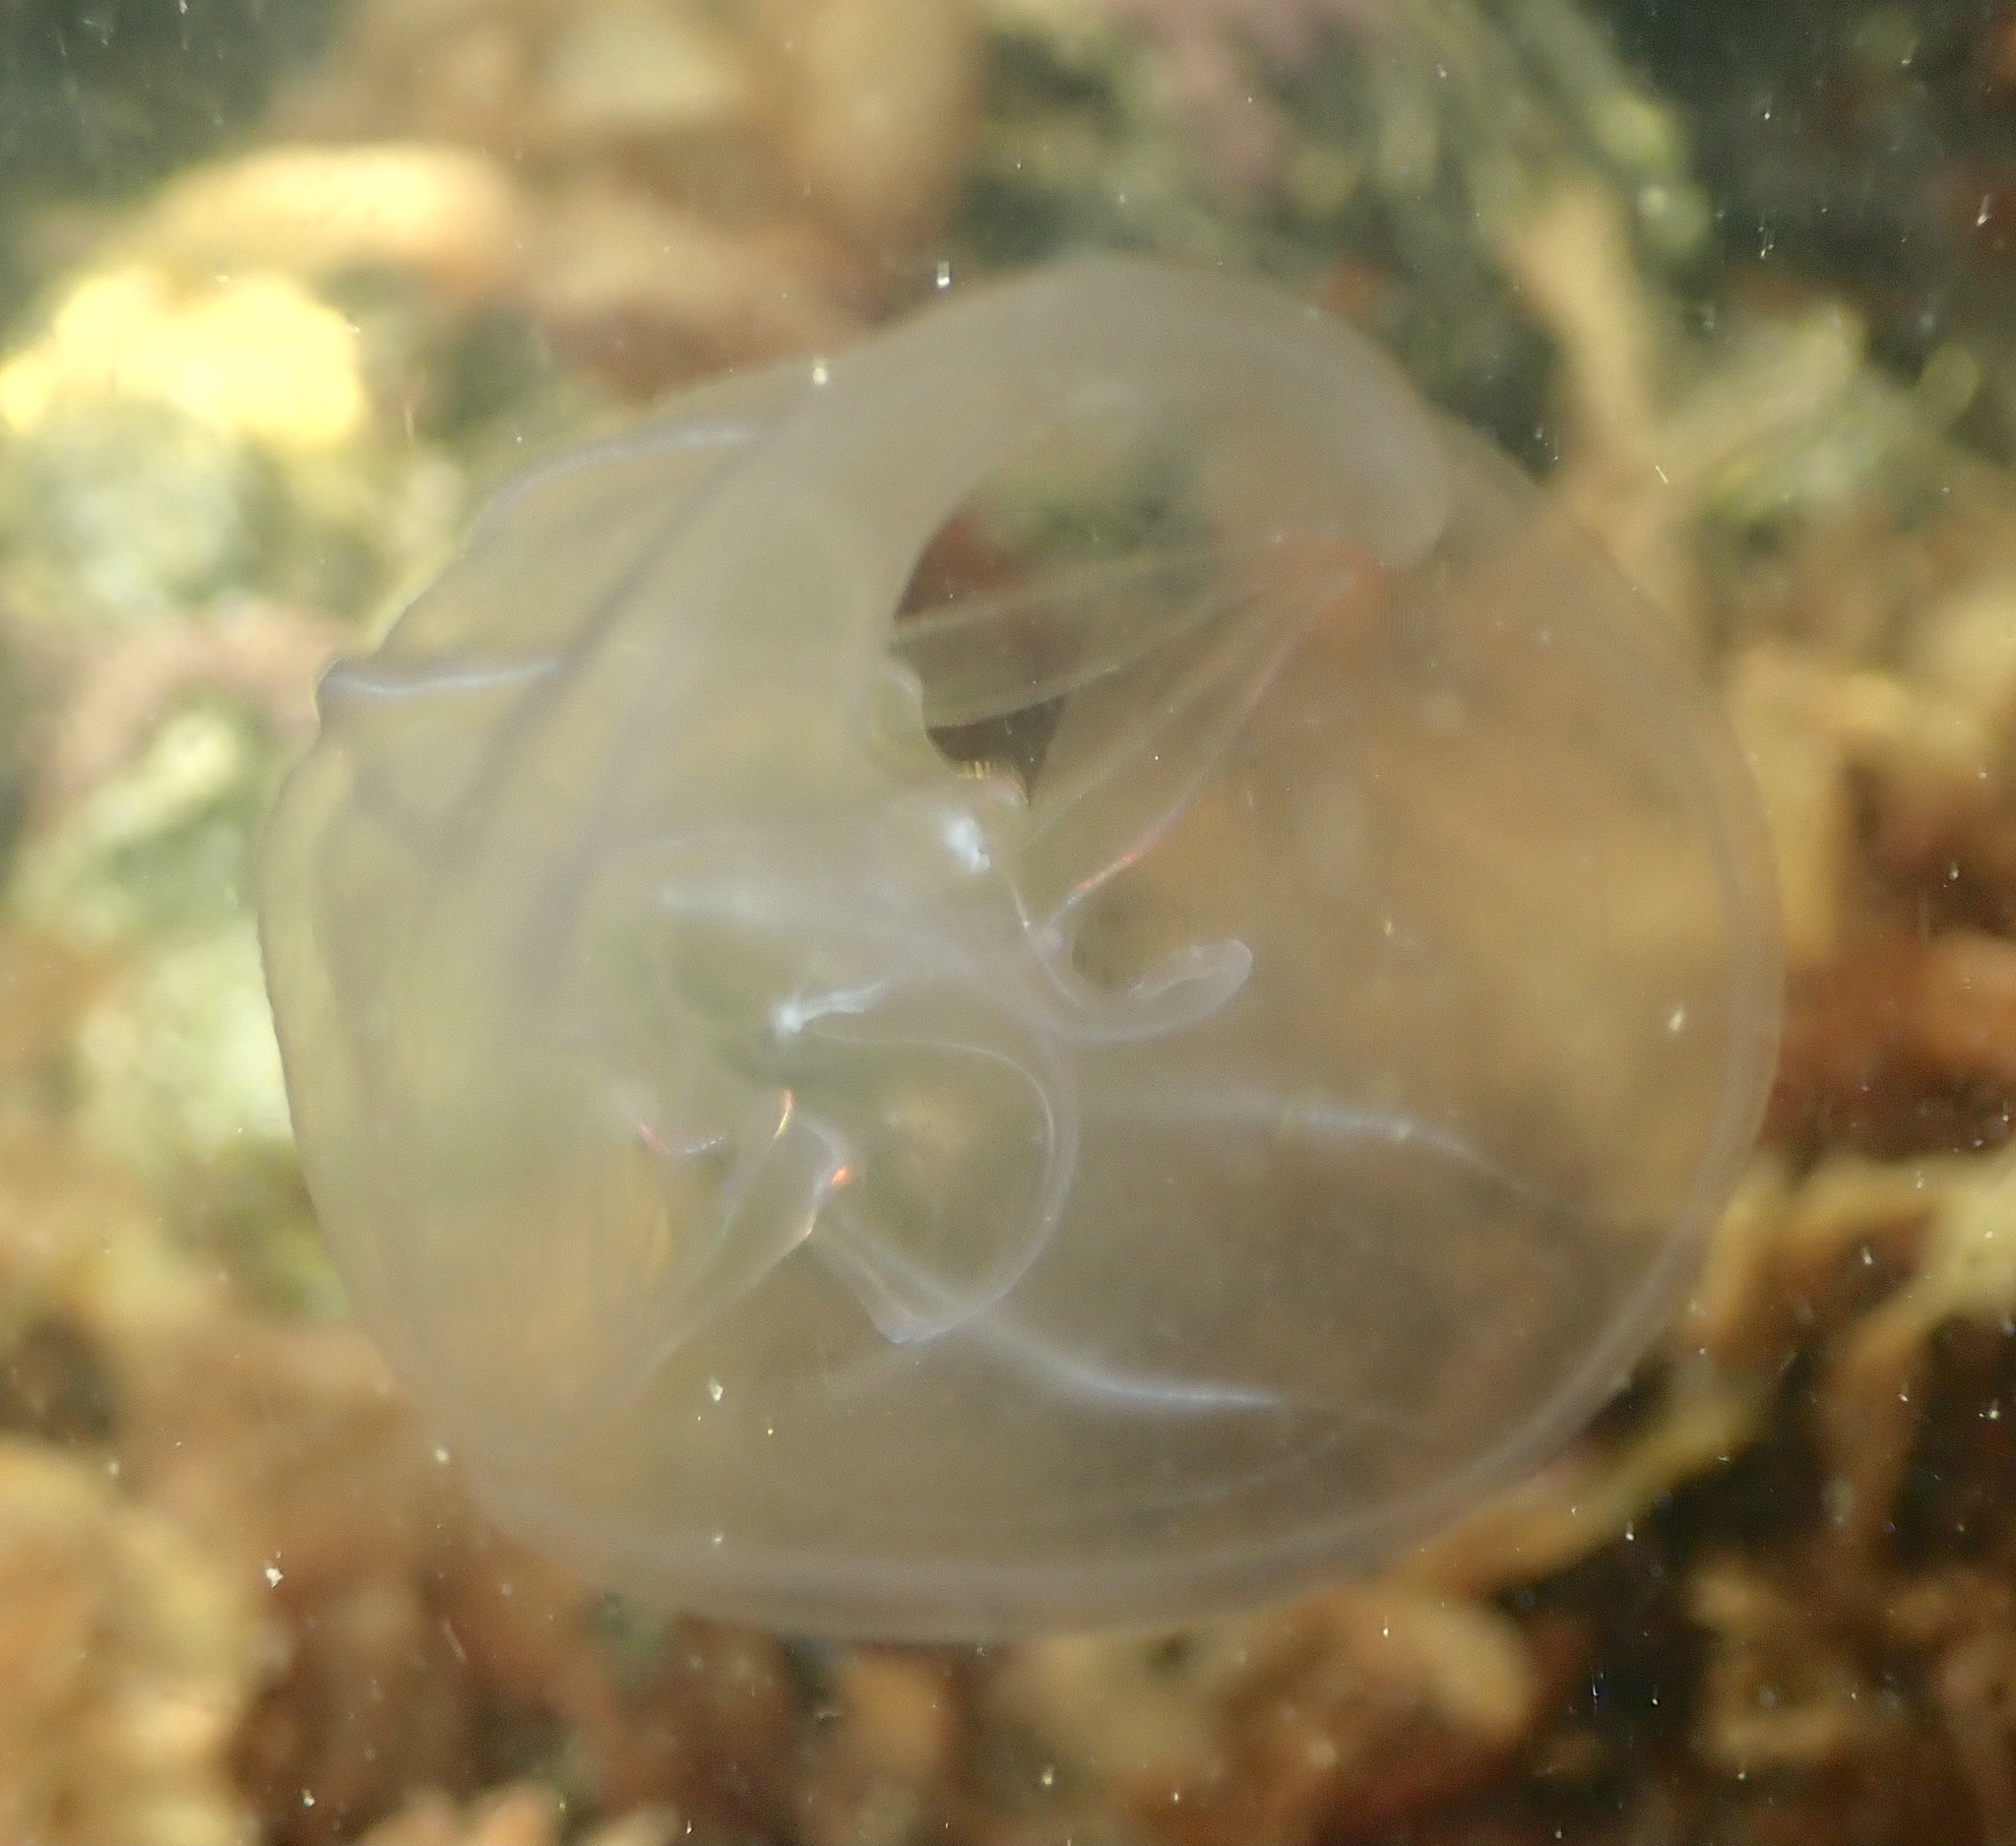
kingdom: Animalia
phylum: Ctenophora
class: Tentaculata
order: Lobata
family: Bolinopsidae
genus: Mnemiopsis
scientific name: Mnemiopsis leidyi
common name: American comb jelly
